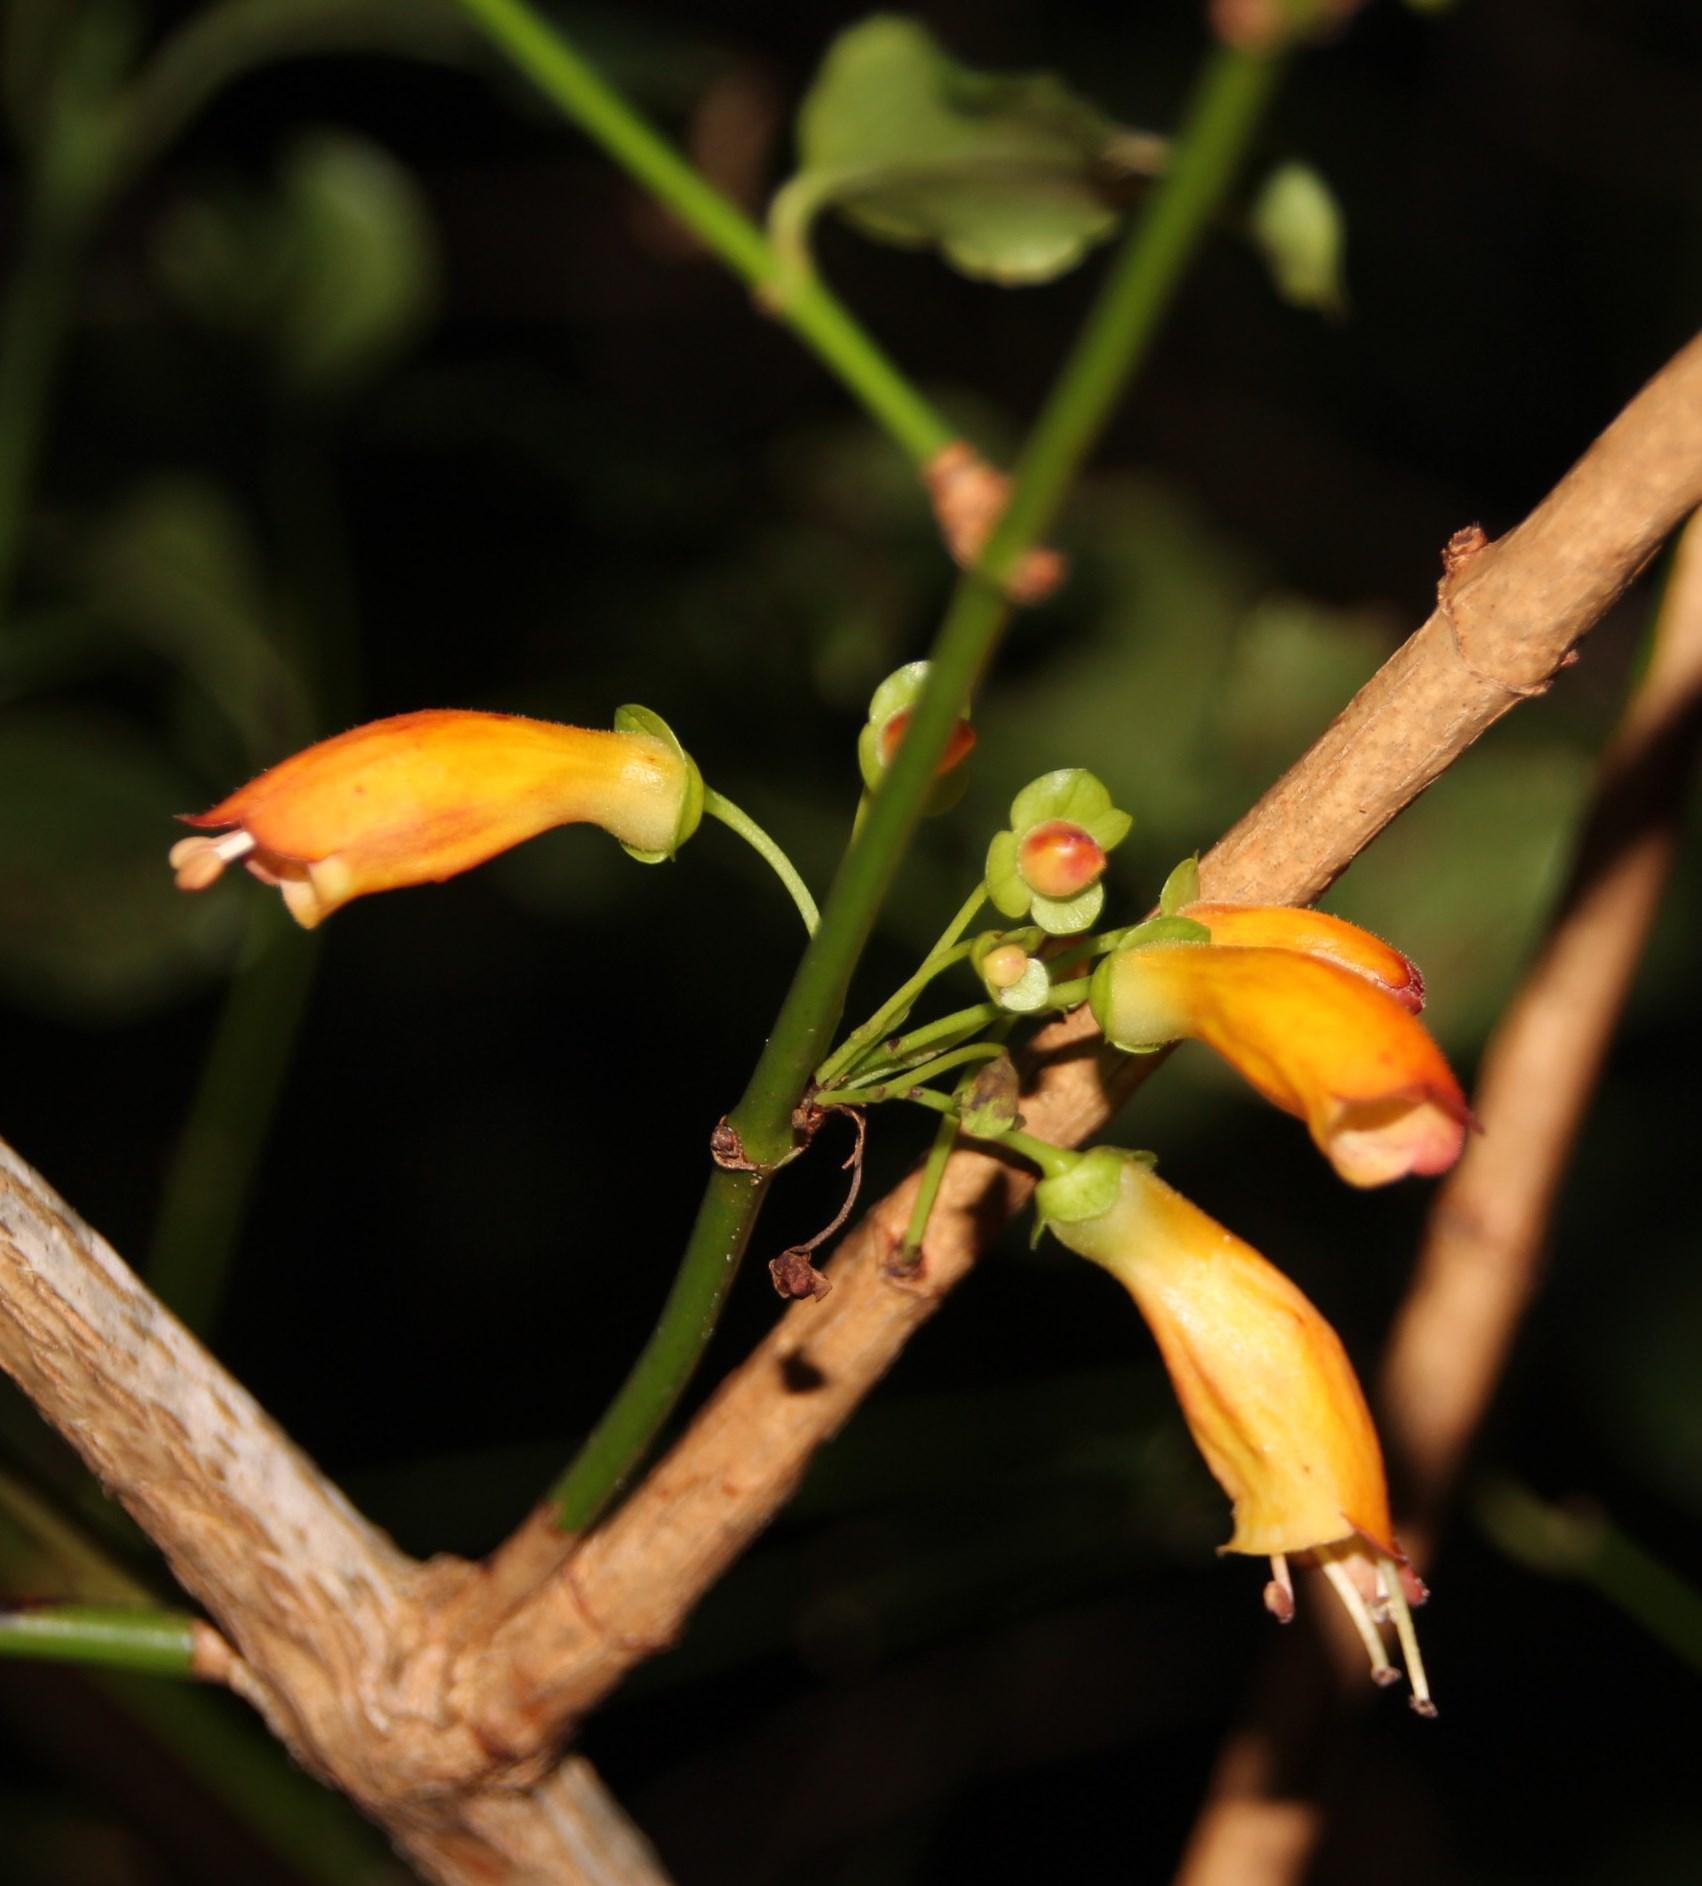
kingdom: Plantae
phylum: Tracheophyta
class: Magnoliopsida
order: Lamiales
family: Stilbaceae
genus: Halleria
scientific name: Halleria lucida
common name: Tree fuschia
